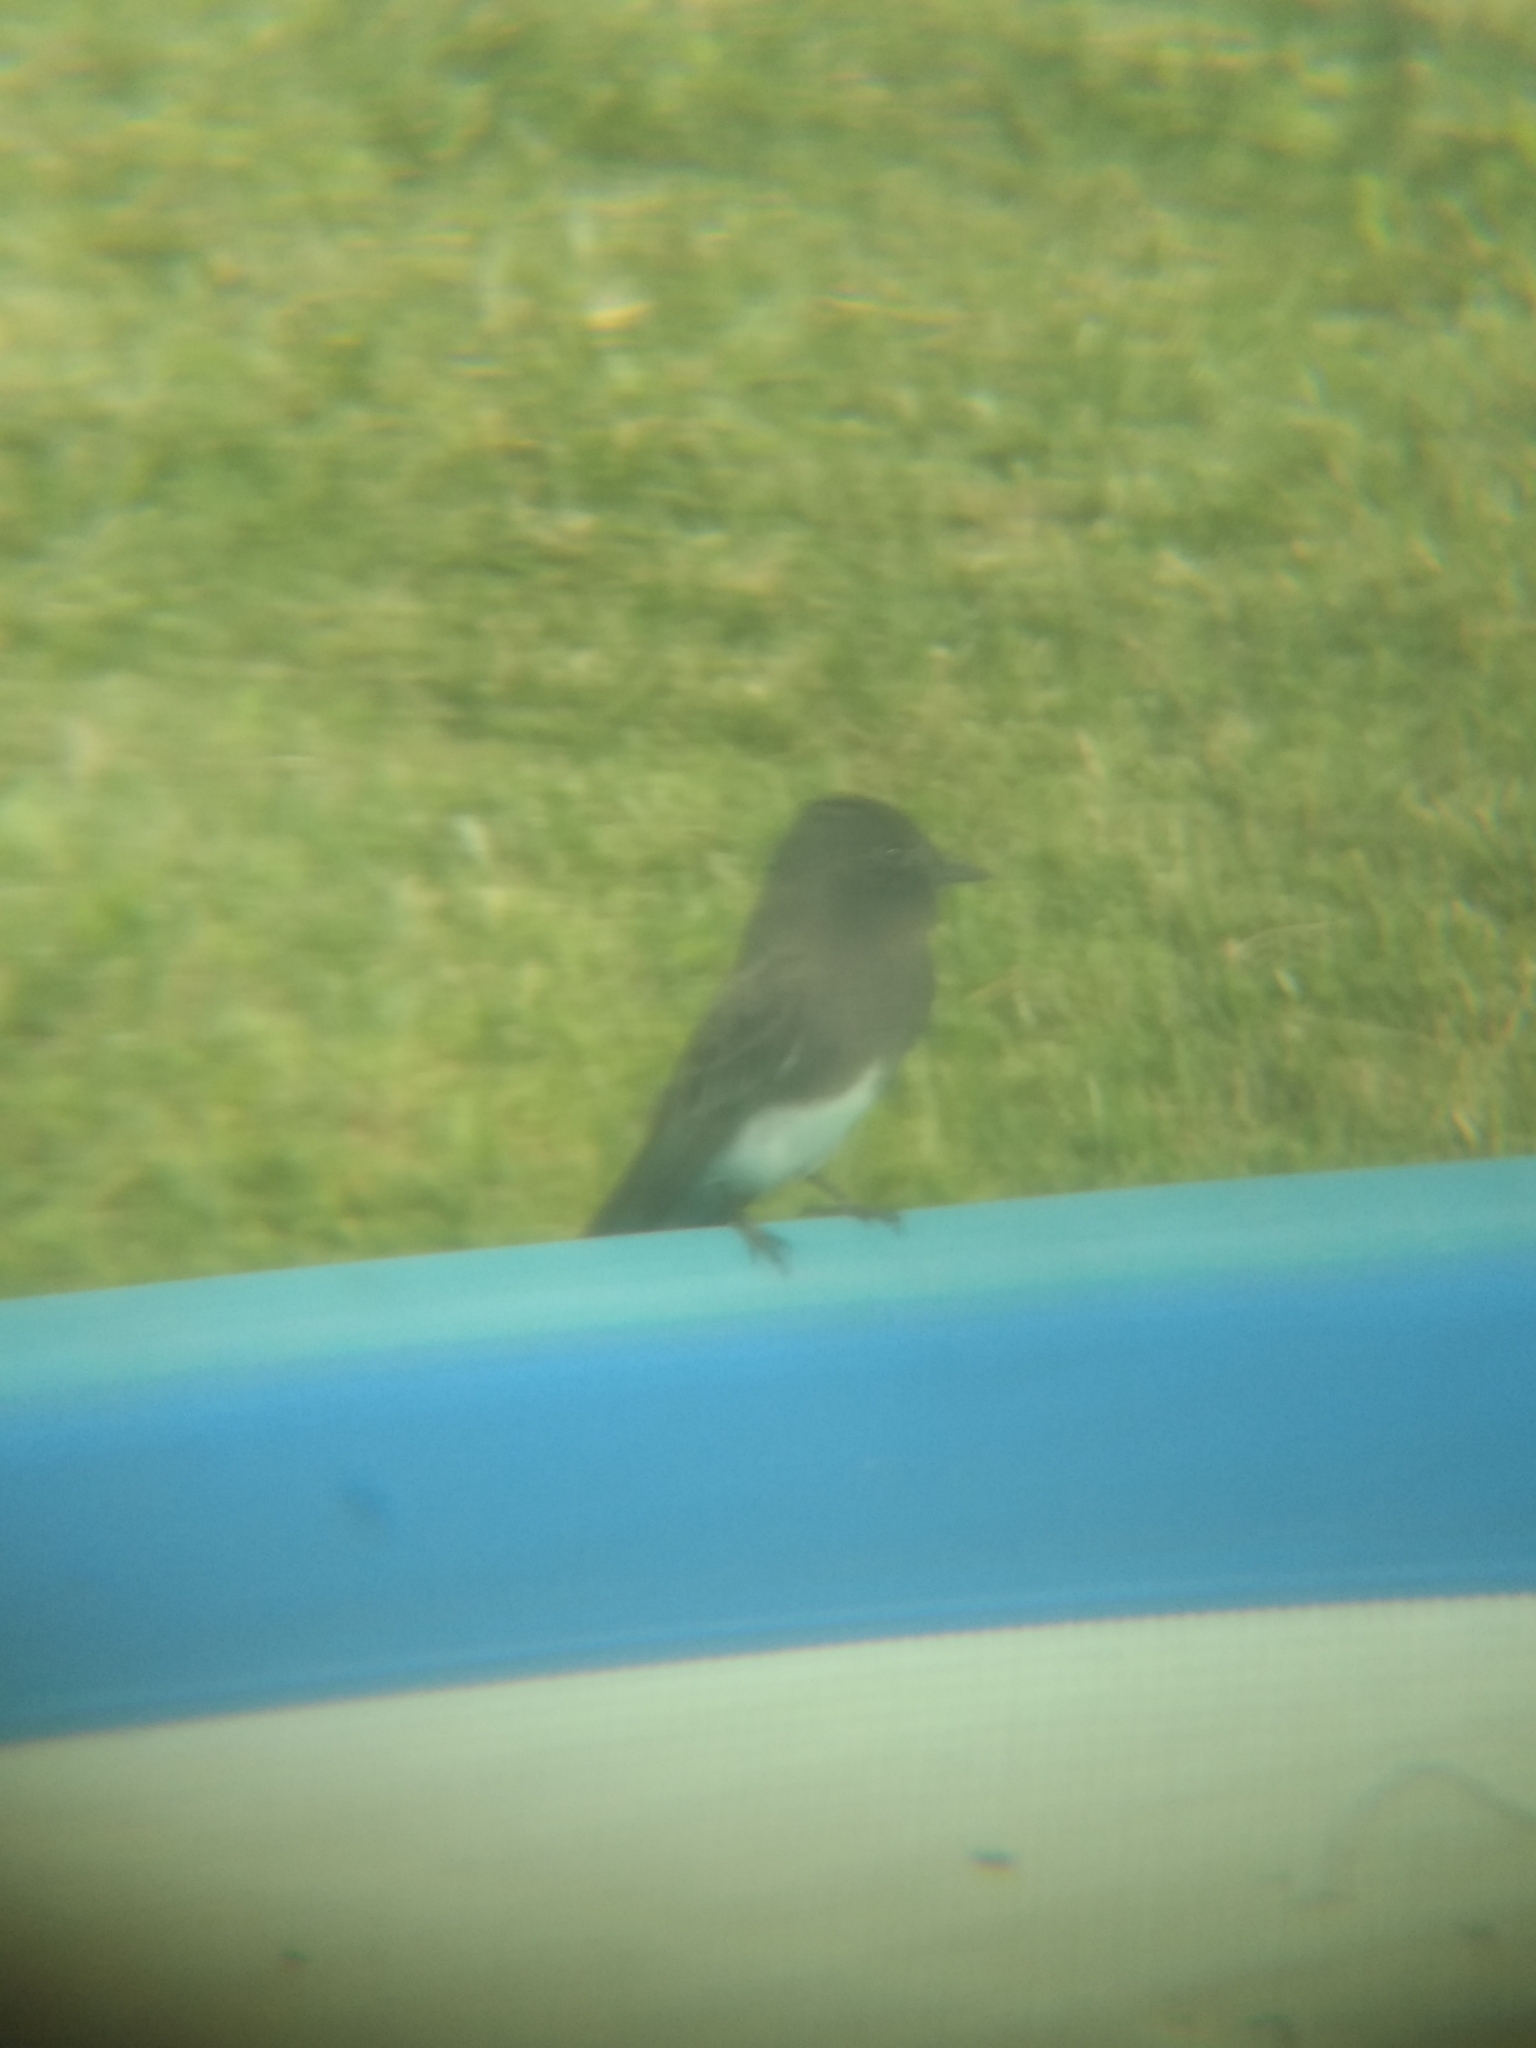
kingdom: Animalia
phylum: Chordata
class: Aves
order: Passeriformes
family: Tyrannidae
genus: Sayornis
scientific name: Sayornis nigricans
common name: Black phoebe
